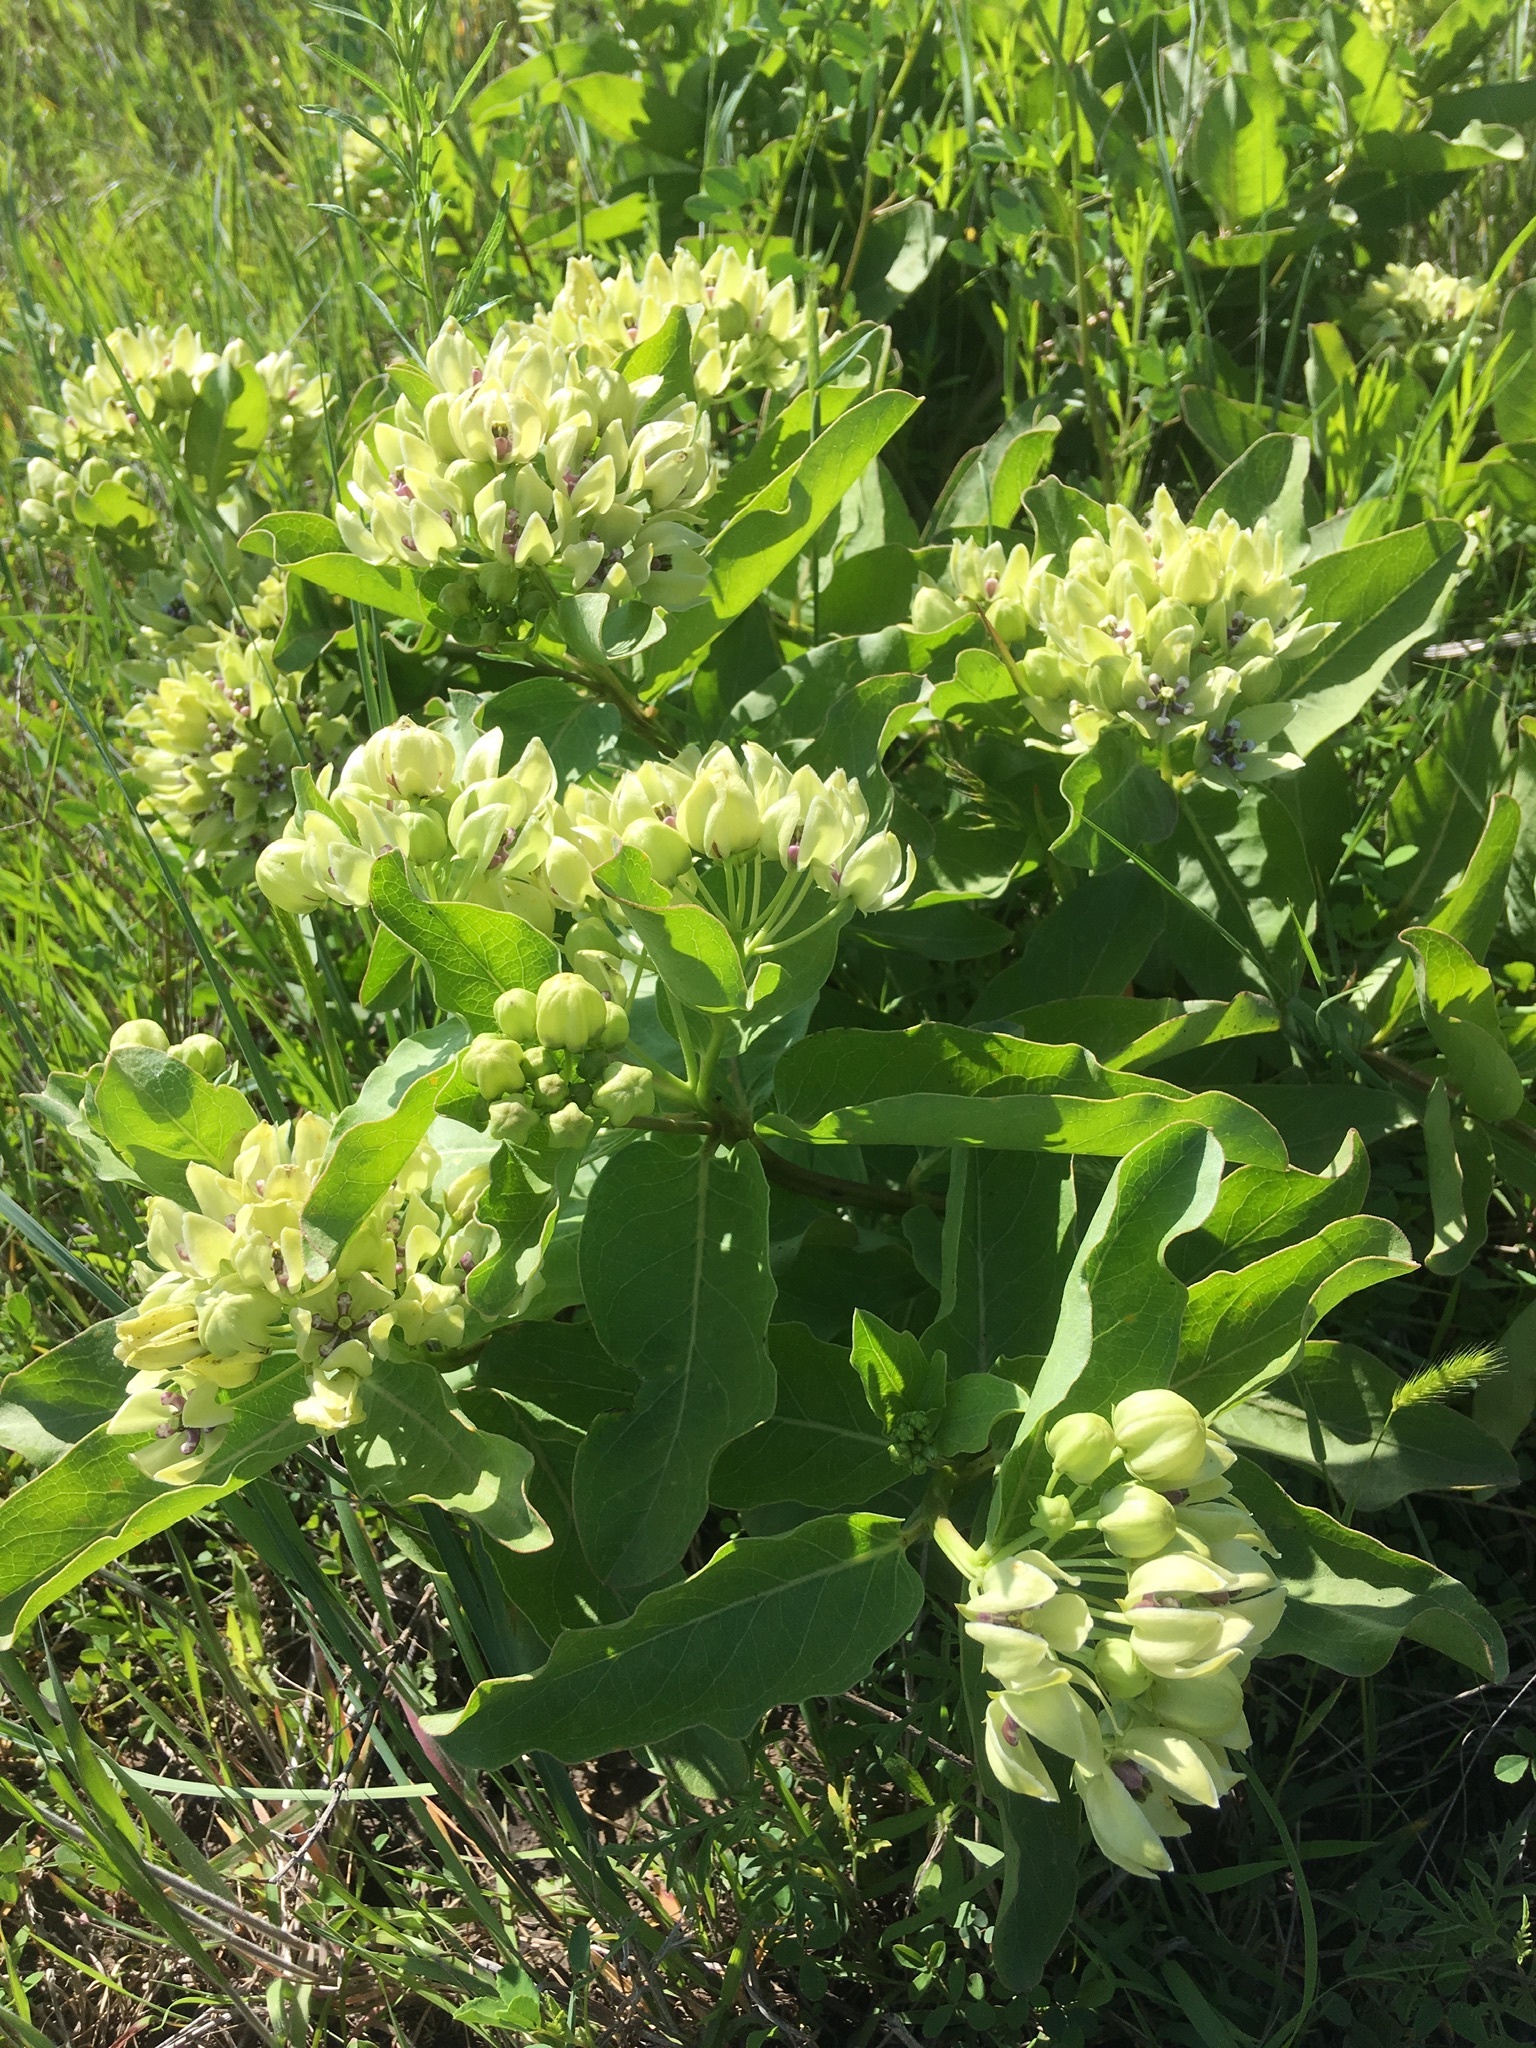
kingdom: Plantae
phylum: Tracheophyta
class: Magnoliopsida
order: Gentianales
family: Apocynaceae
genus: Asclepias
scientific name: Asclepias viridis
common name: Antelope-horns
